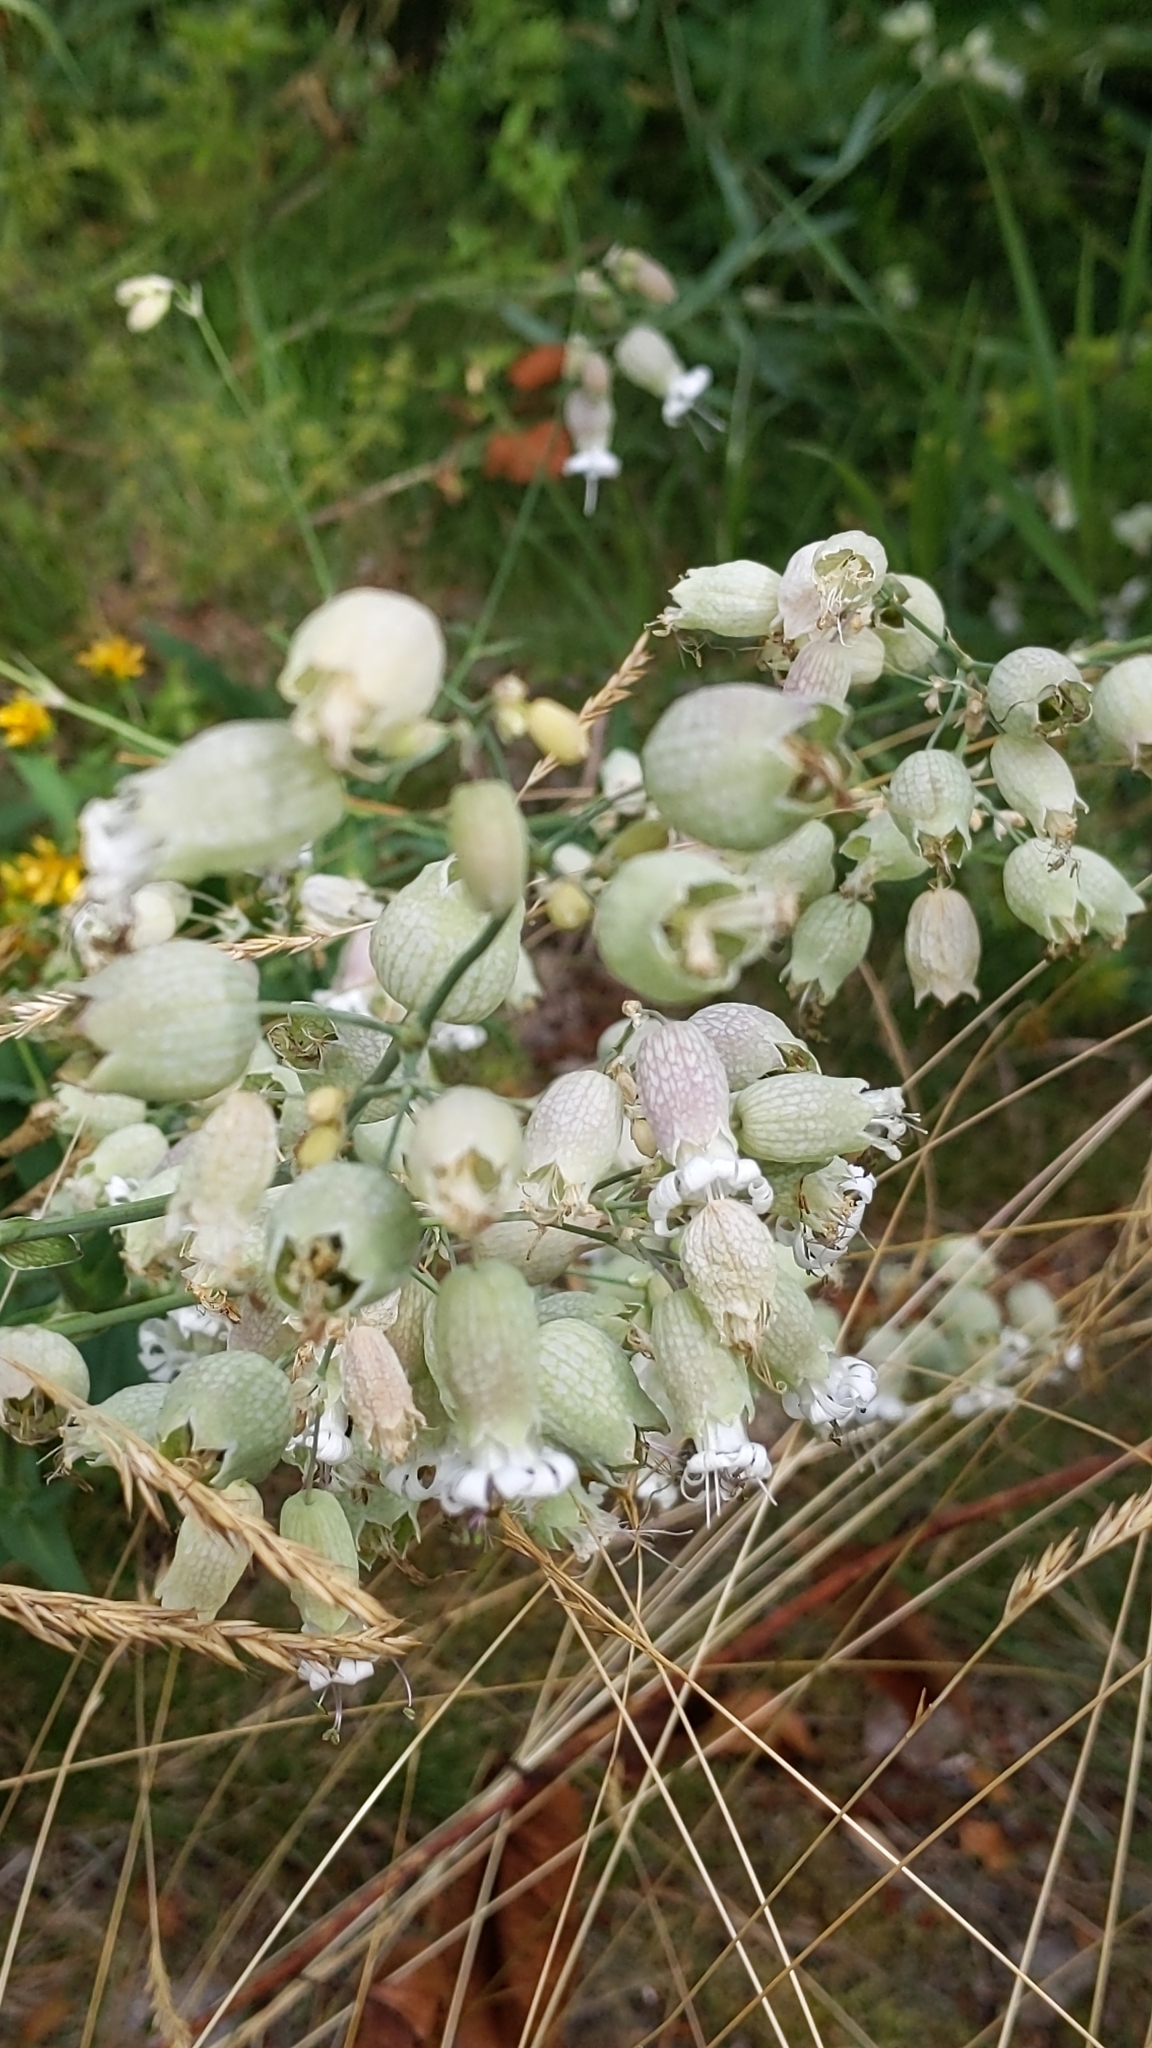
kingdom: Plantae
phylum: Tracheophyta
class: Magnoliopsida
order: Caryophyllales
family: Caryophyllaceae
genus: Silene
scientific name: Silene vulgaris
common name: Bladder campion
